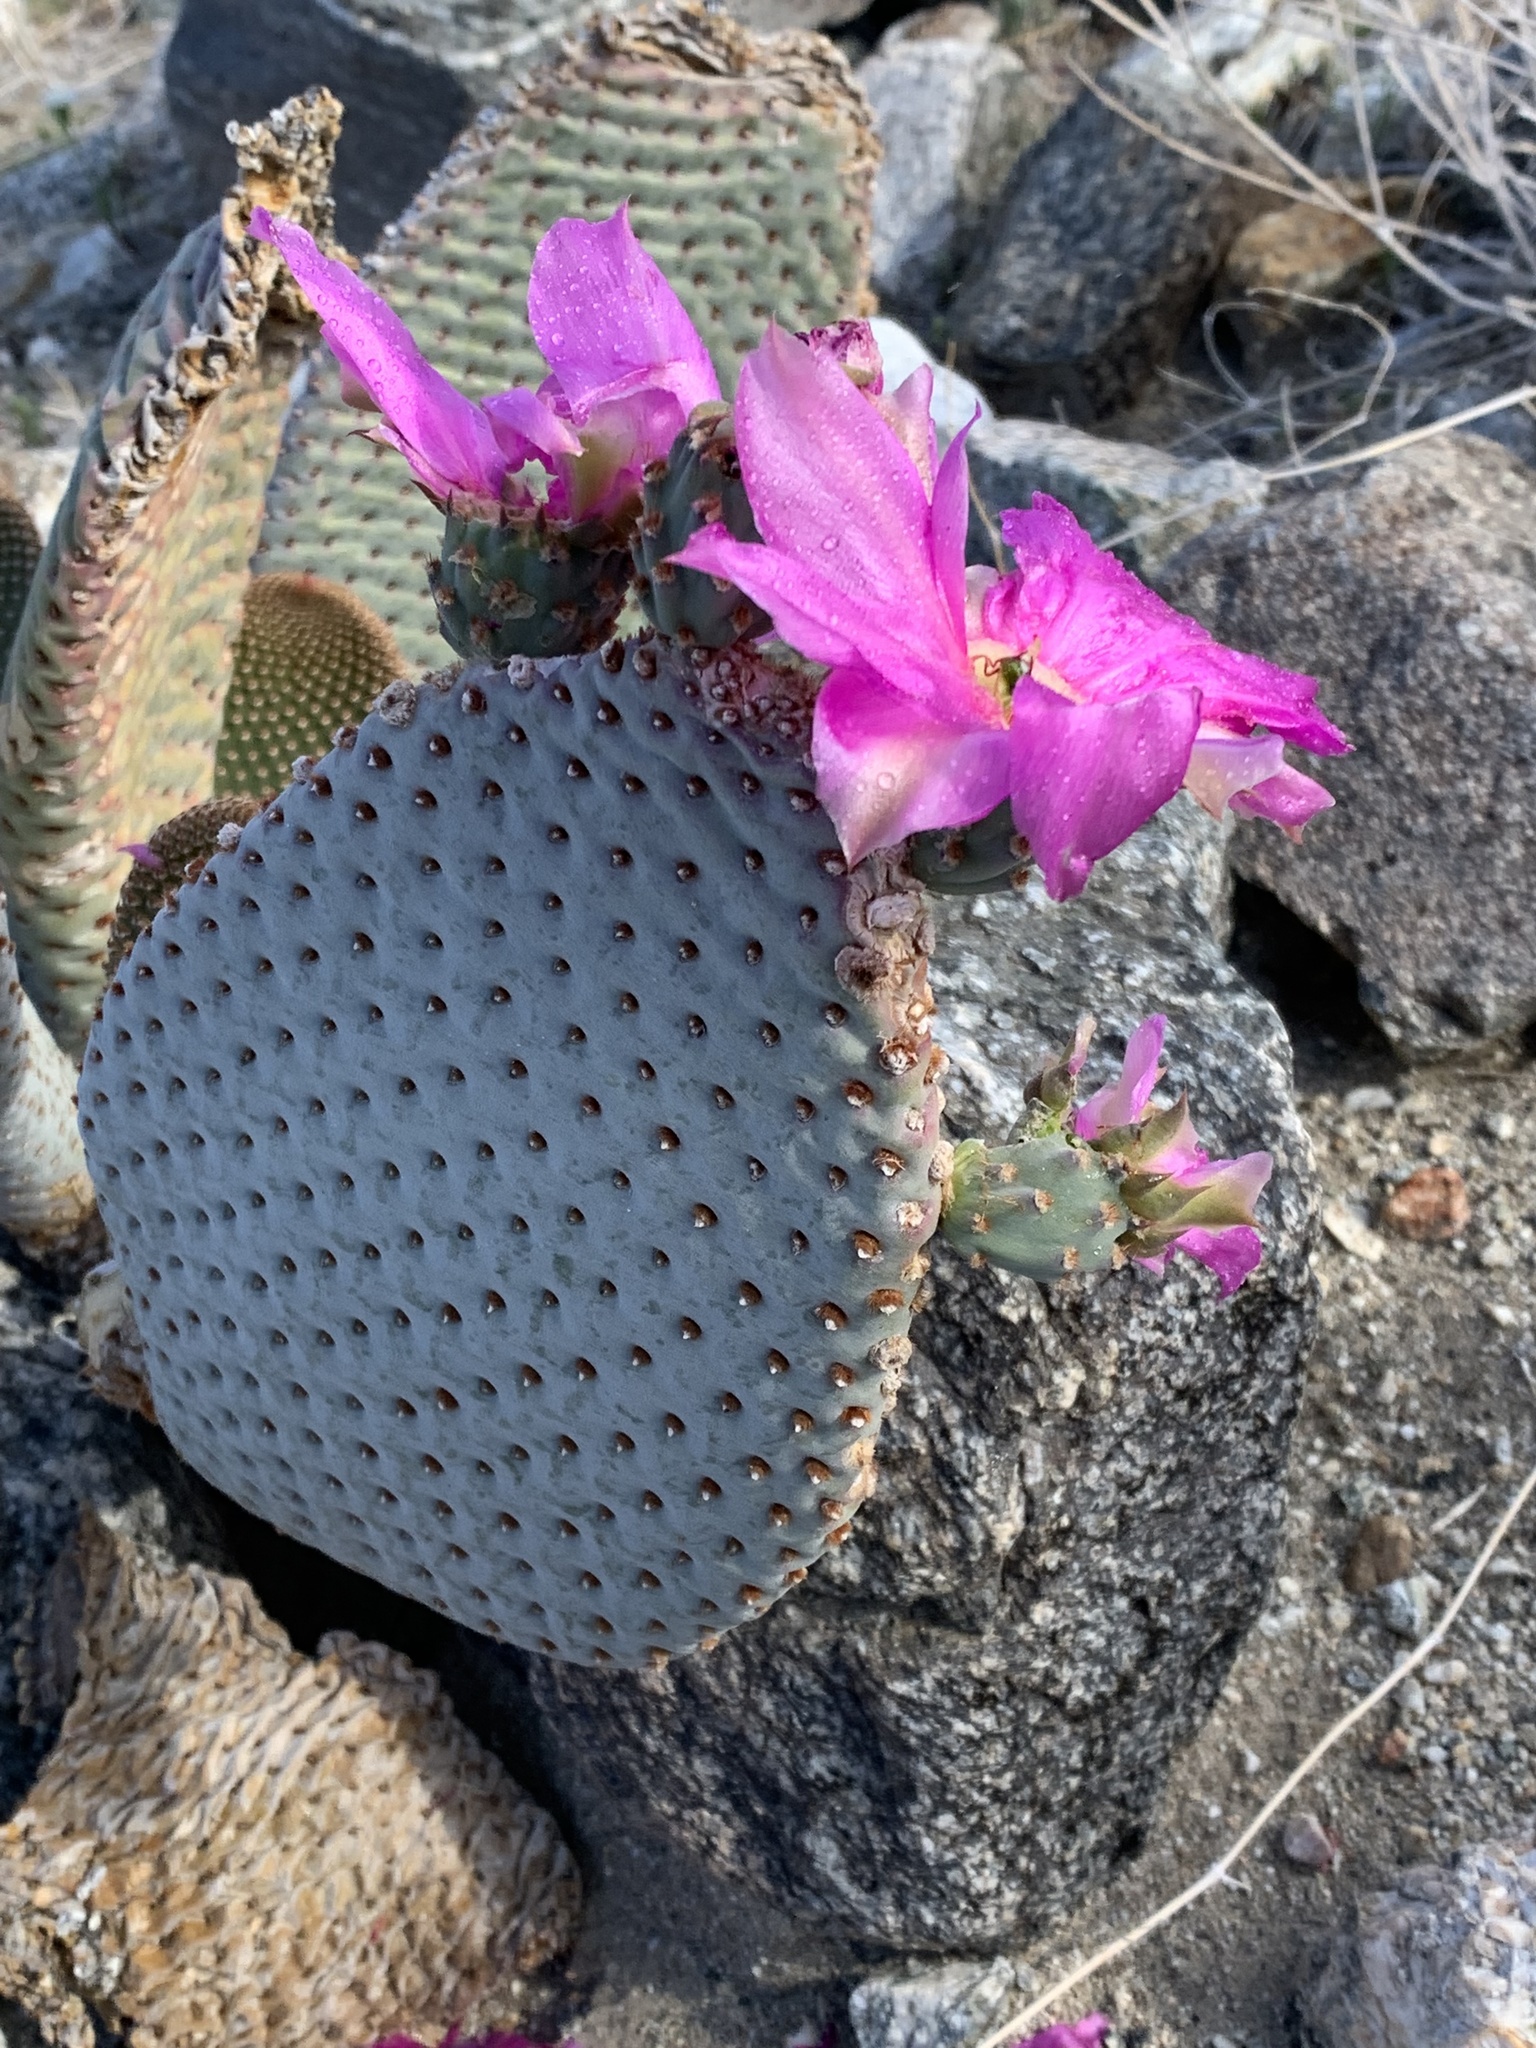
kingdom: Plantae
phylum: Tracheophyta
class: Magnoliopsida
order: Caryophyllales
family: Cactaceae
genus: Opuntia
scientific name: Opuntia basilaris
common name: Beavertail prickly-pear
